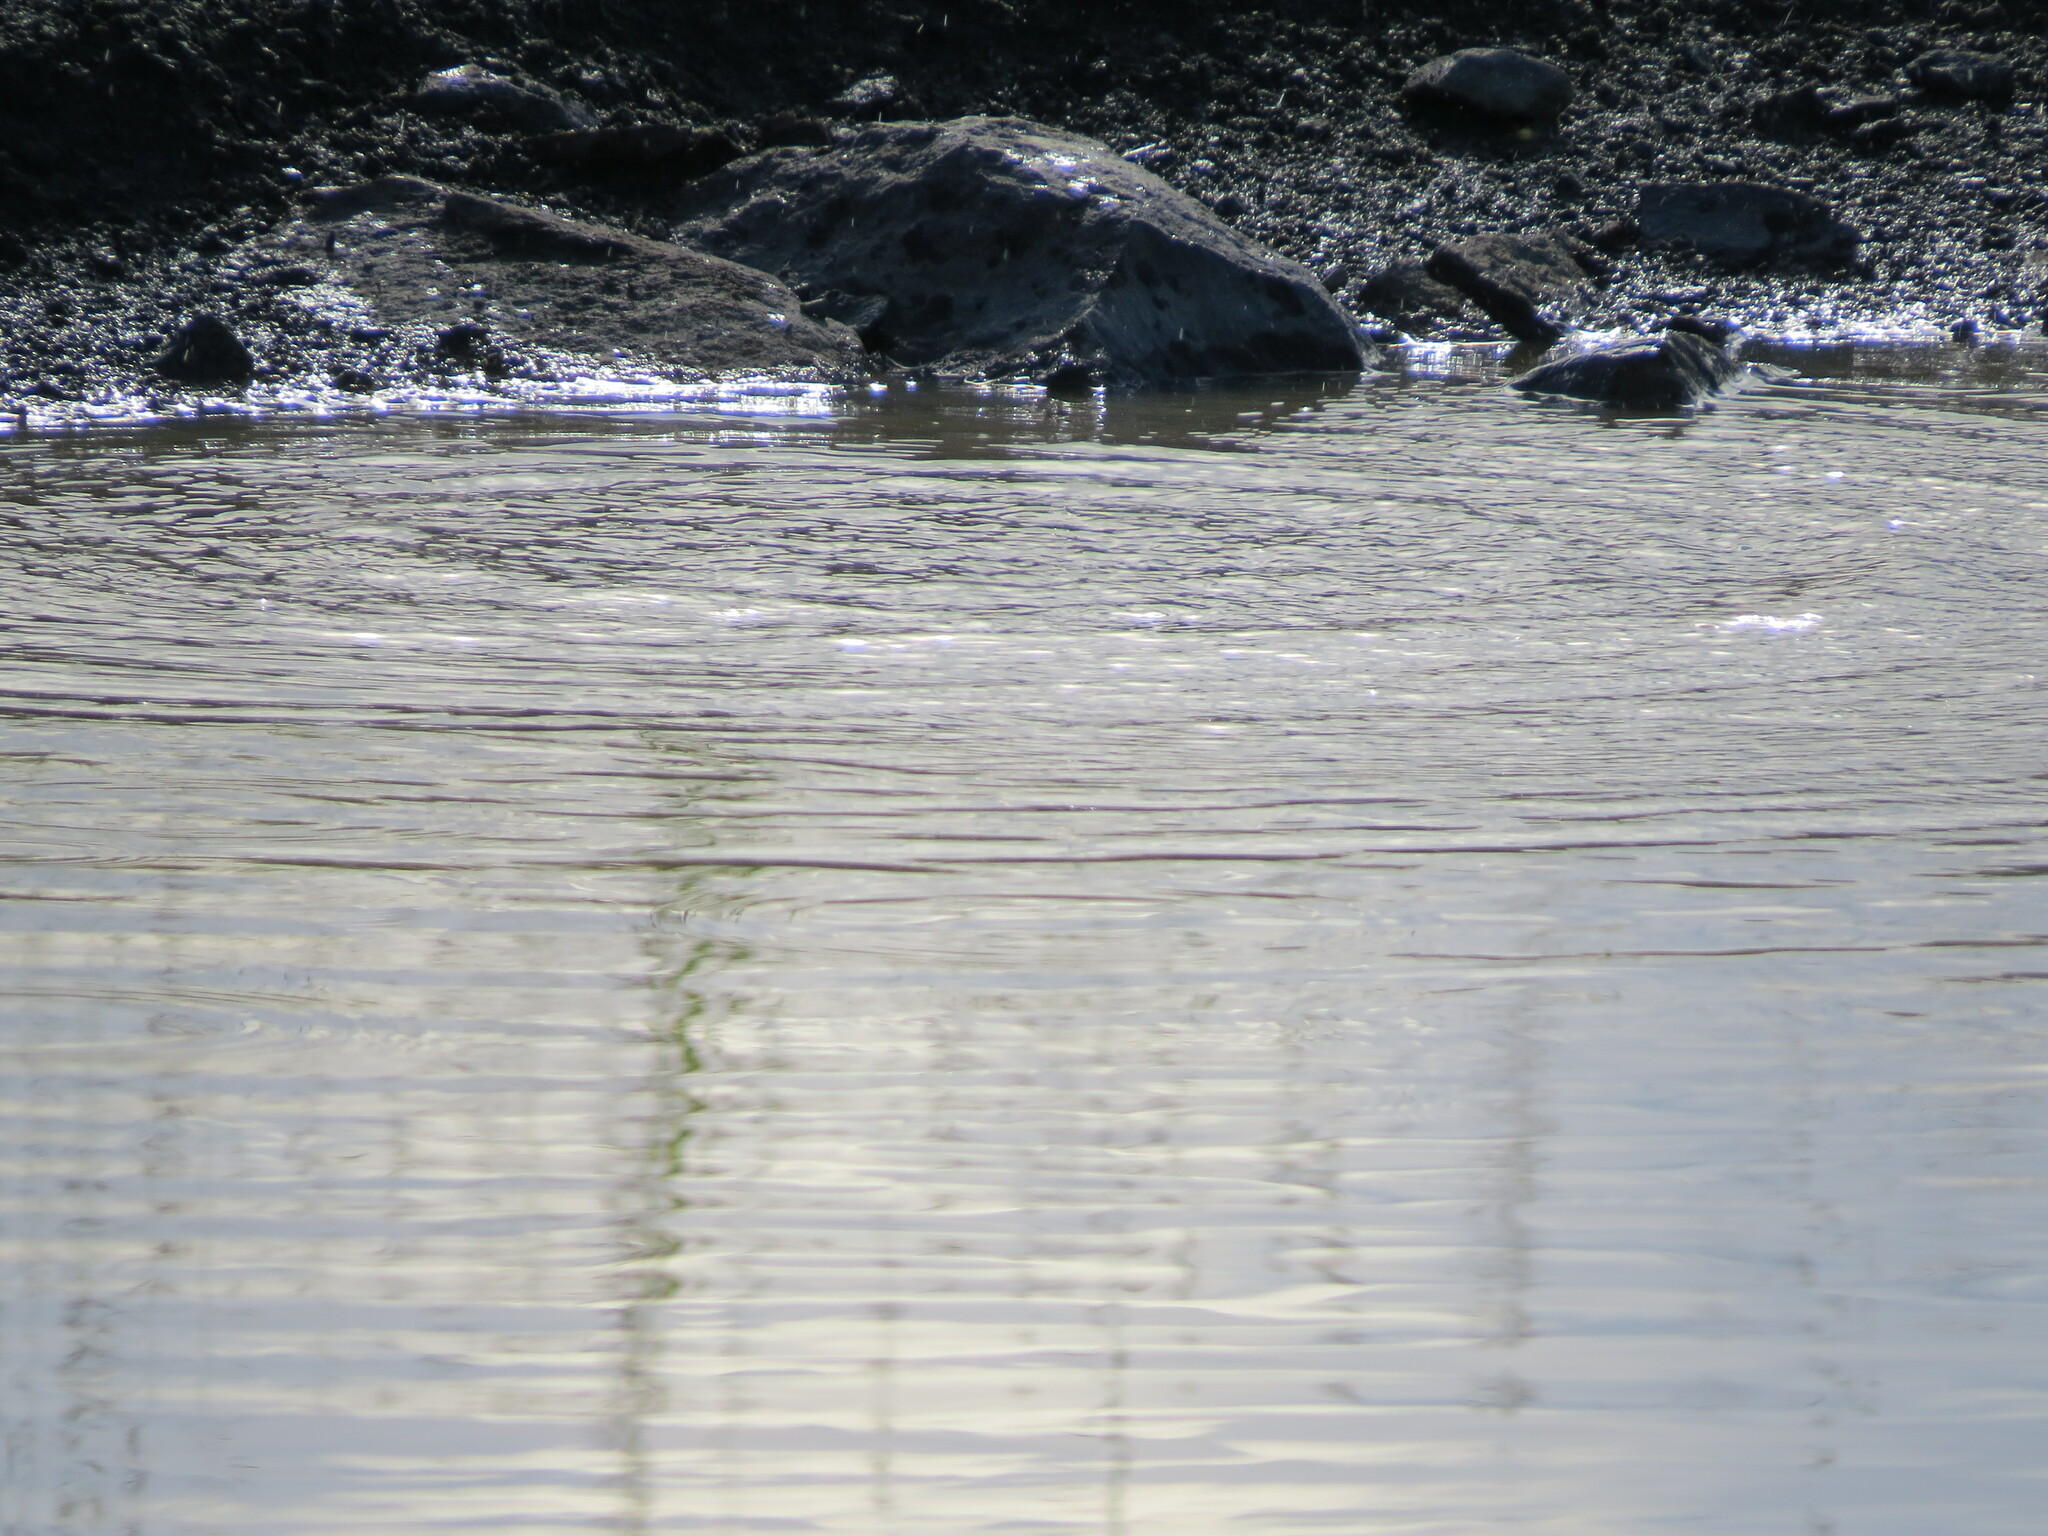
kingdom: Animalia
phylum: Chordata
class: Aves
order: Passeriformes
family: Fringillidae
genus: Carduelis
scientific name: Carduelis carduelis
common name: European goldfinch
